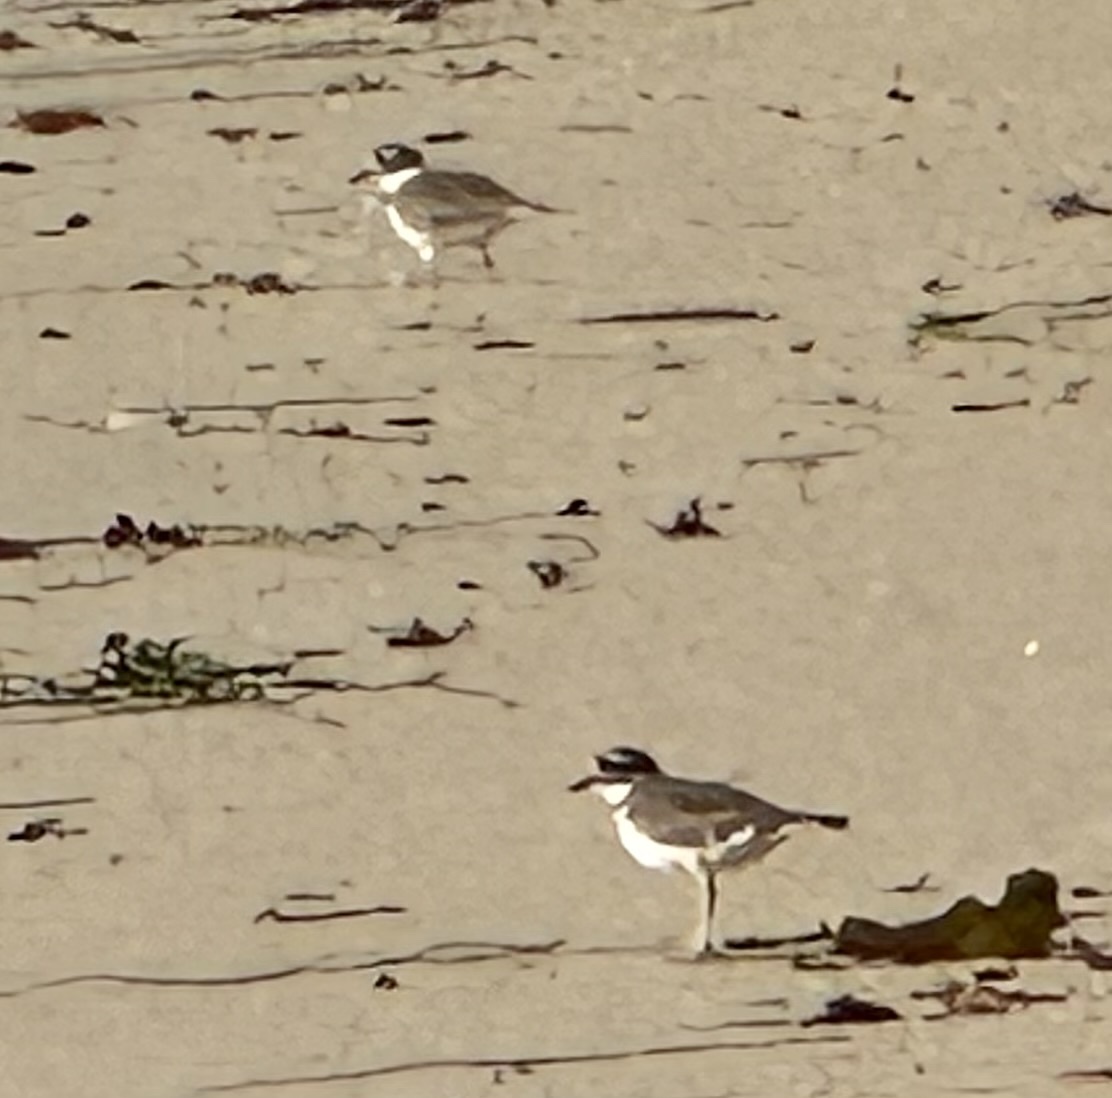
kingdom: Animalia
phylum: Chordata
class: Aves
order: Charadriiformes
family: Charadriidae
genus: Charadrius
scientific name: Charadrius vociferus
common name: Killdeer
